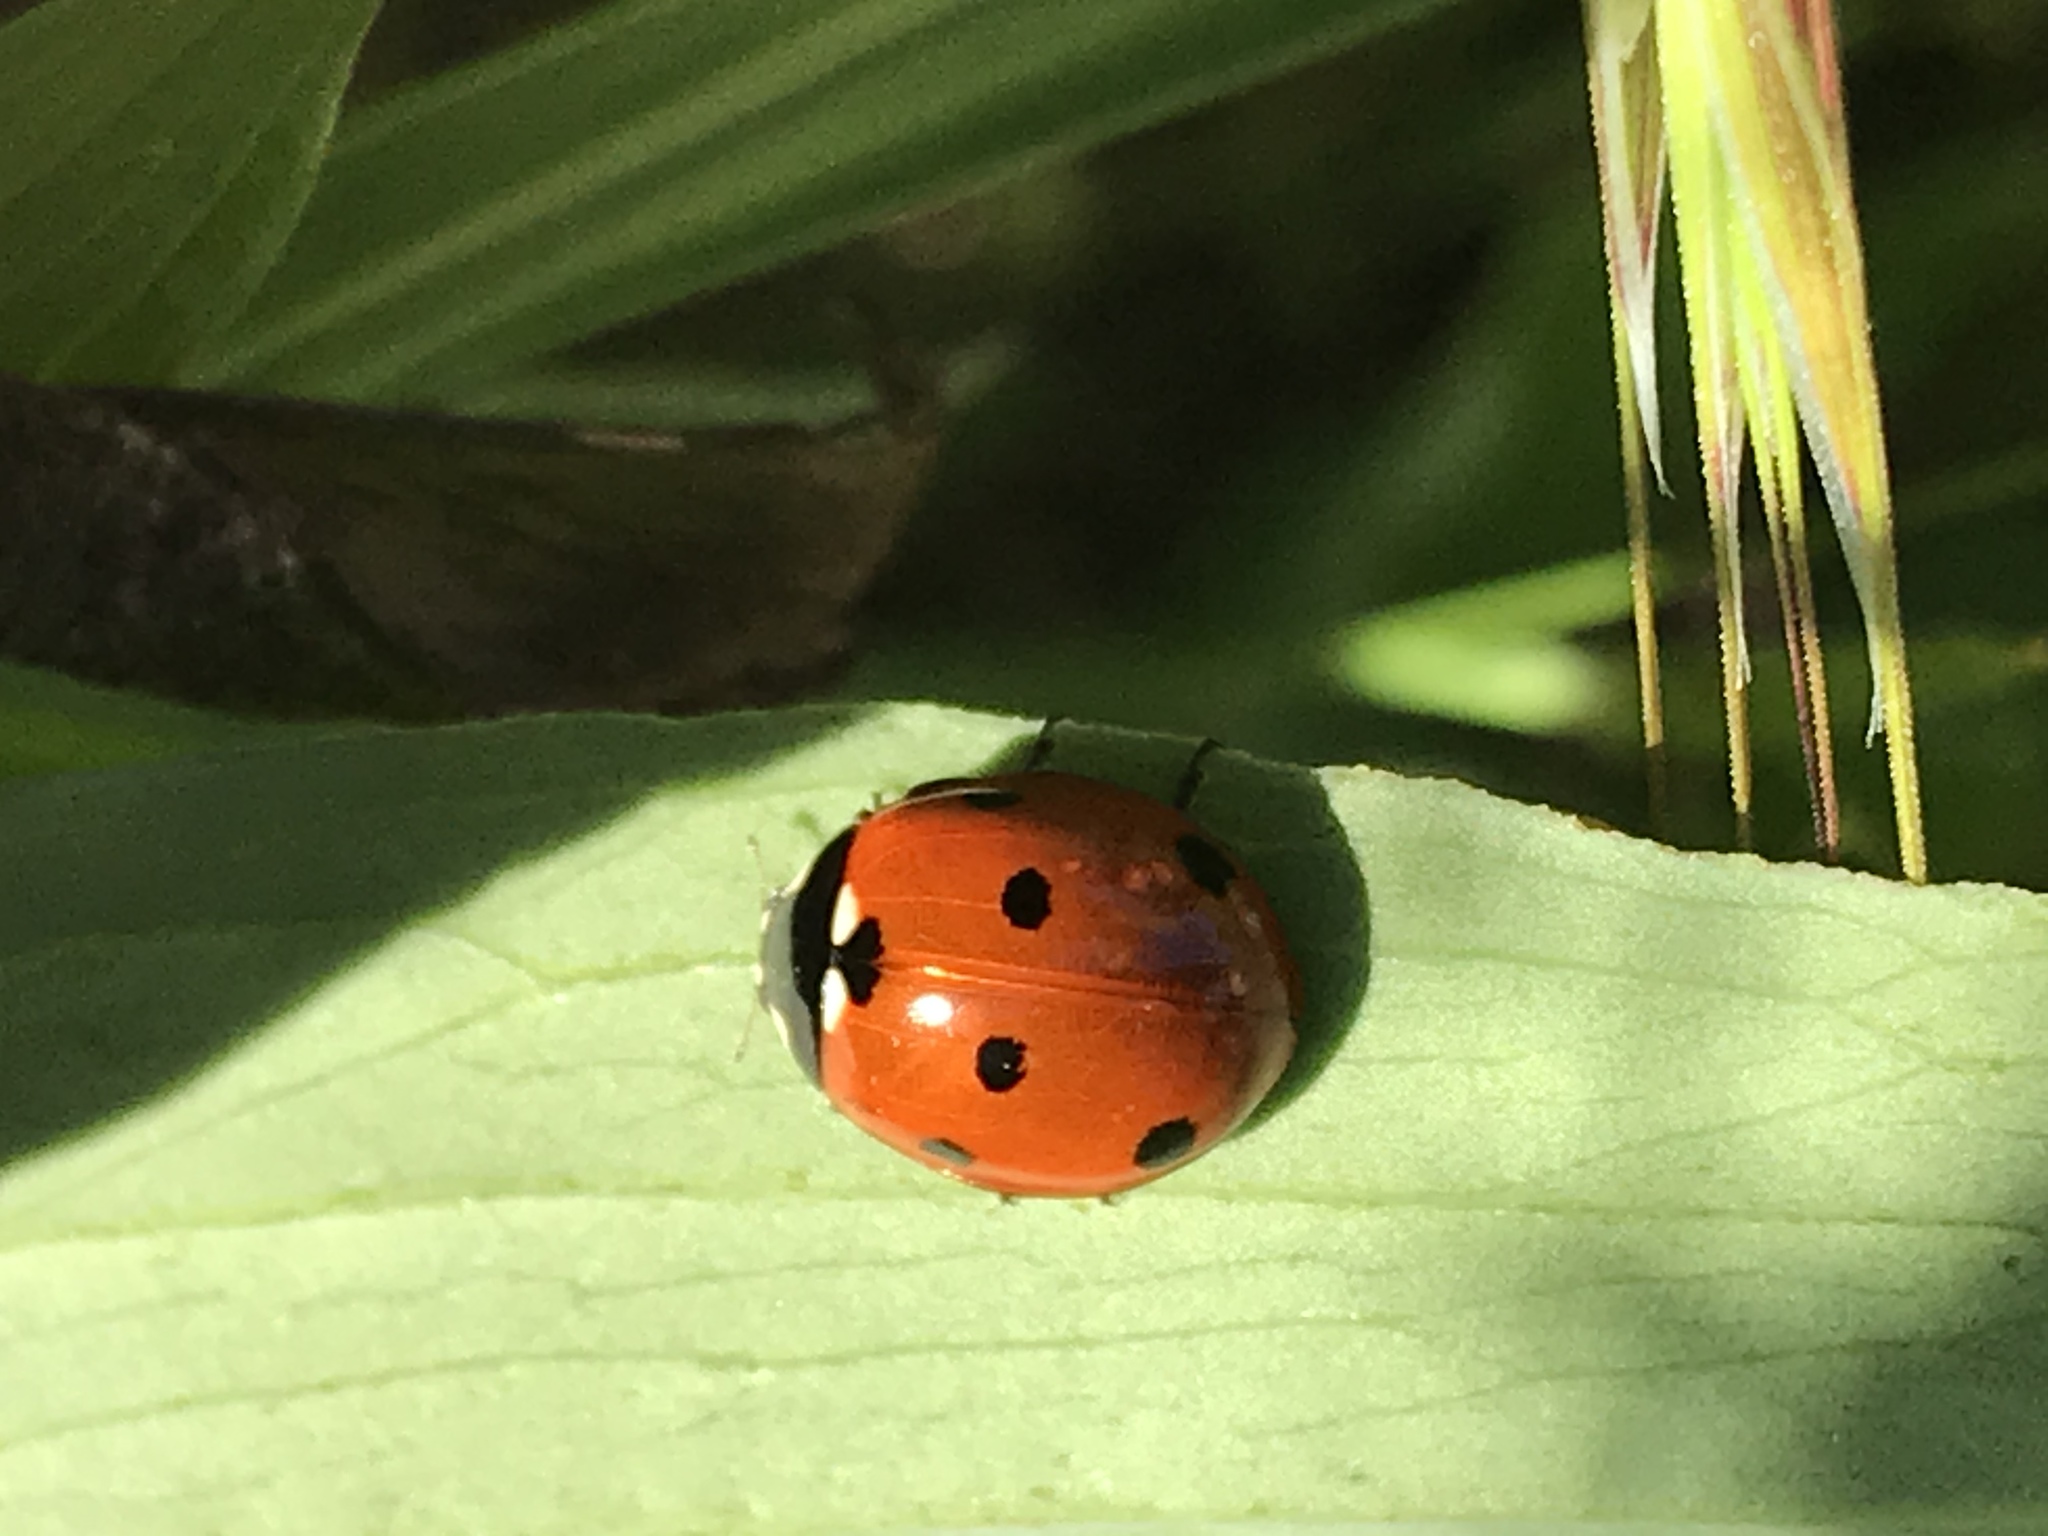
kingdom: Animalia
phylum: Arthropoda
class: Insecta
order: Coleoptera
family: Coccinellidae
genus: Coccinella
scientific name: Coccinella septempunctata
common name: Sevenspotted lady beetle
